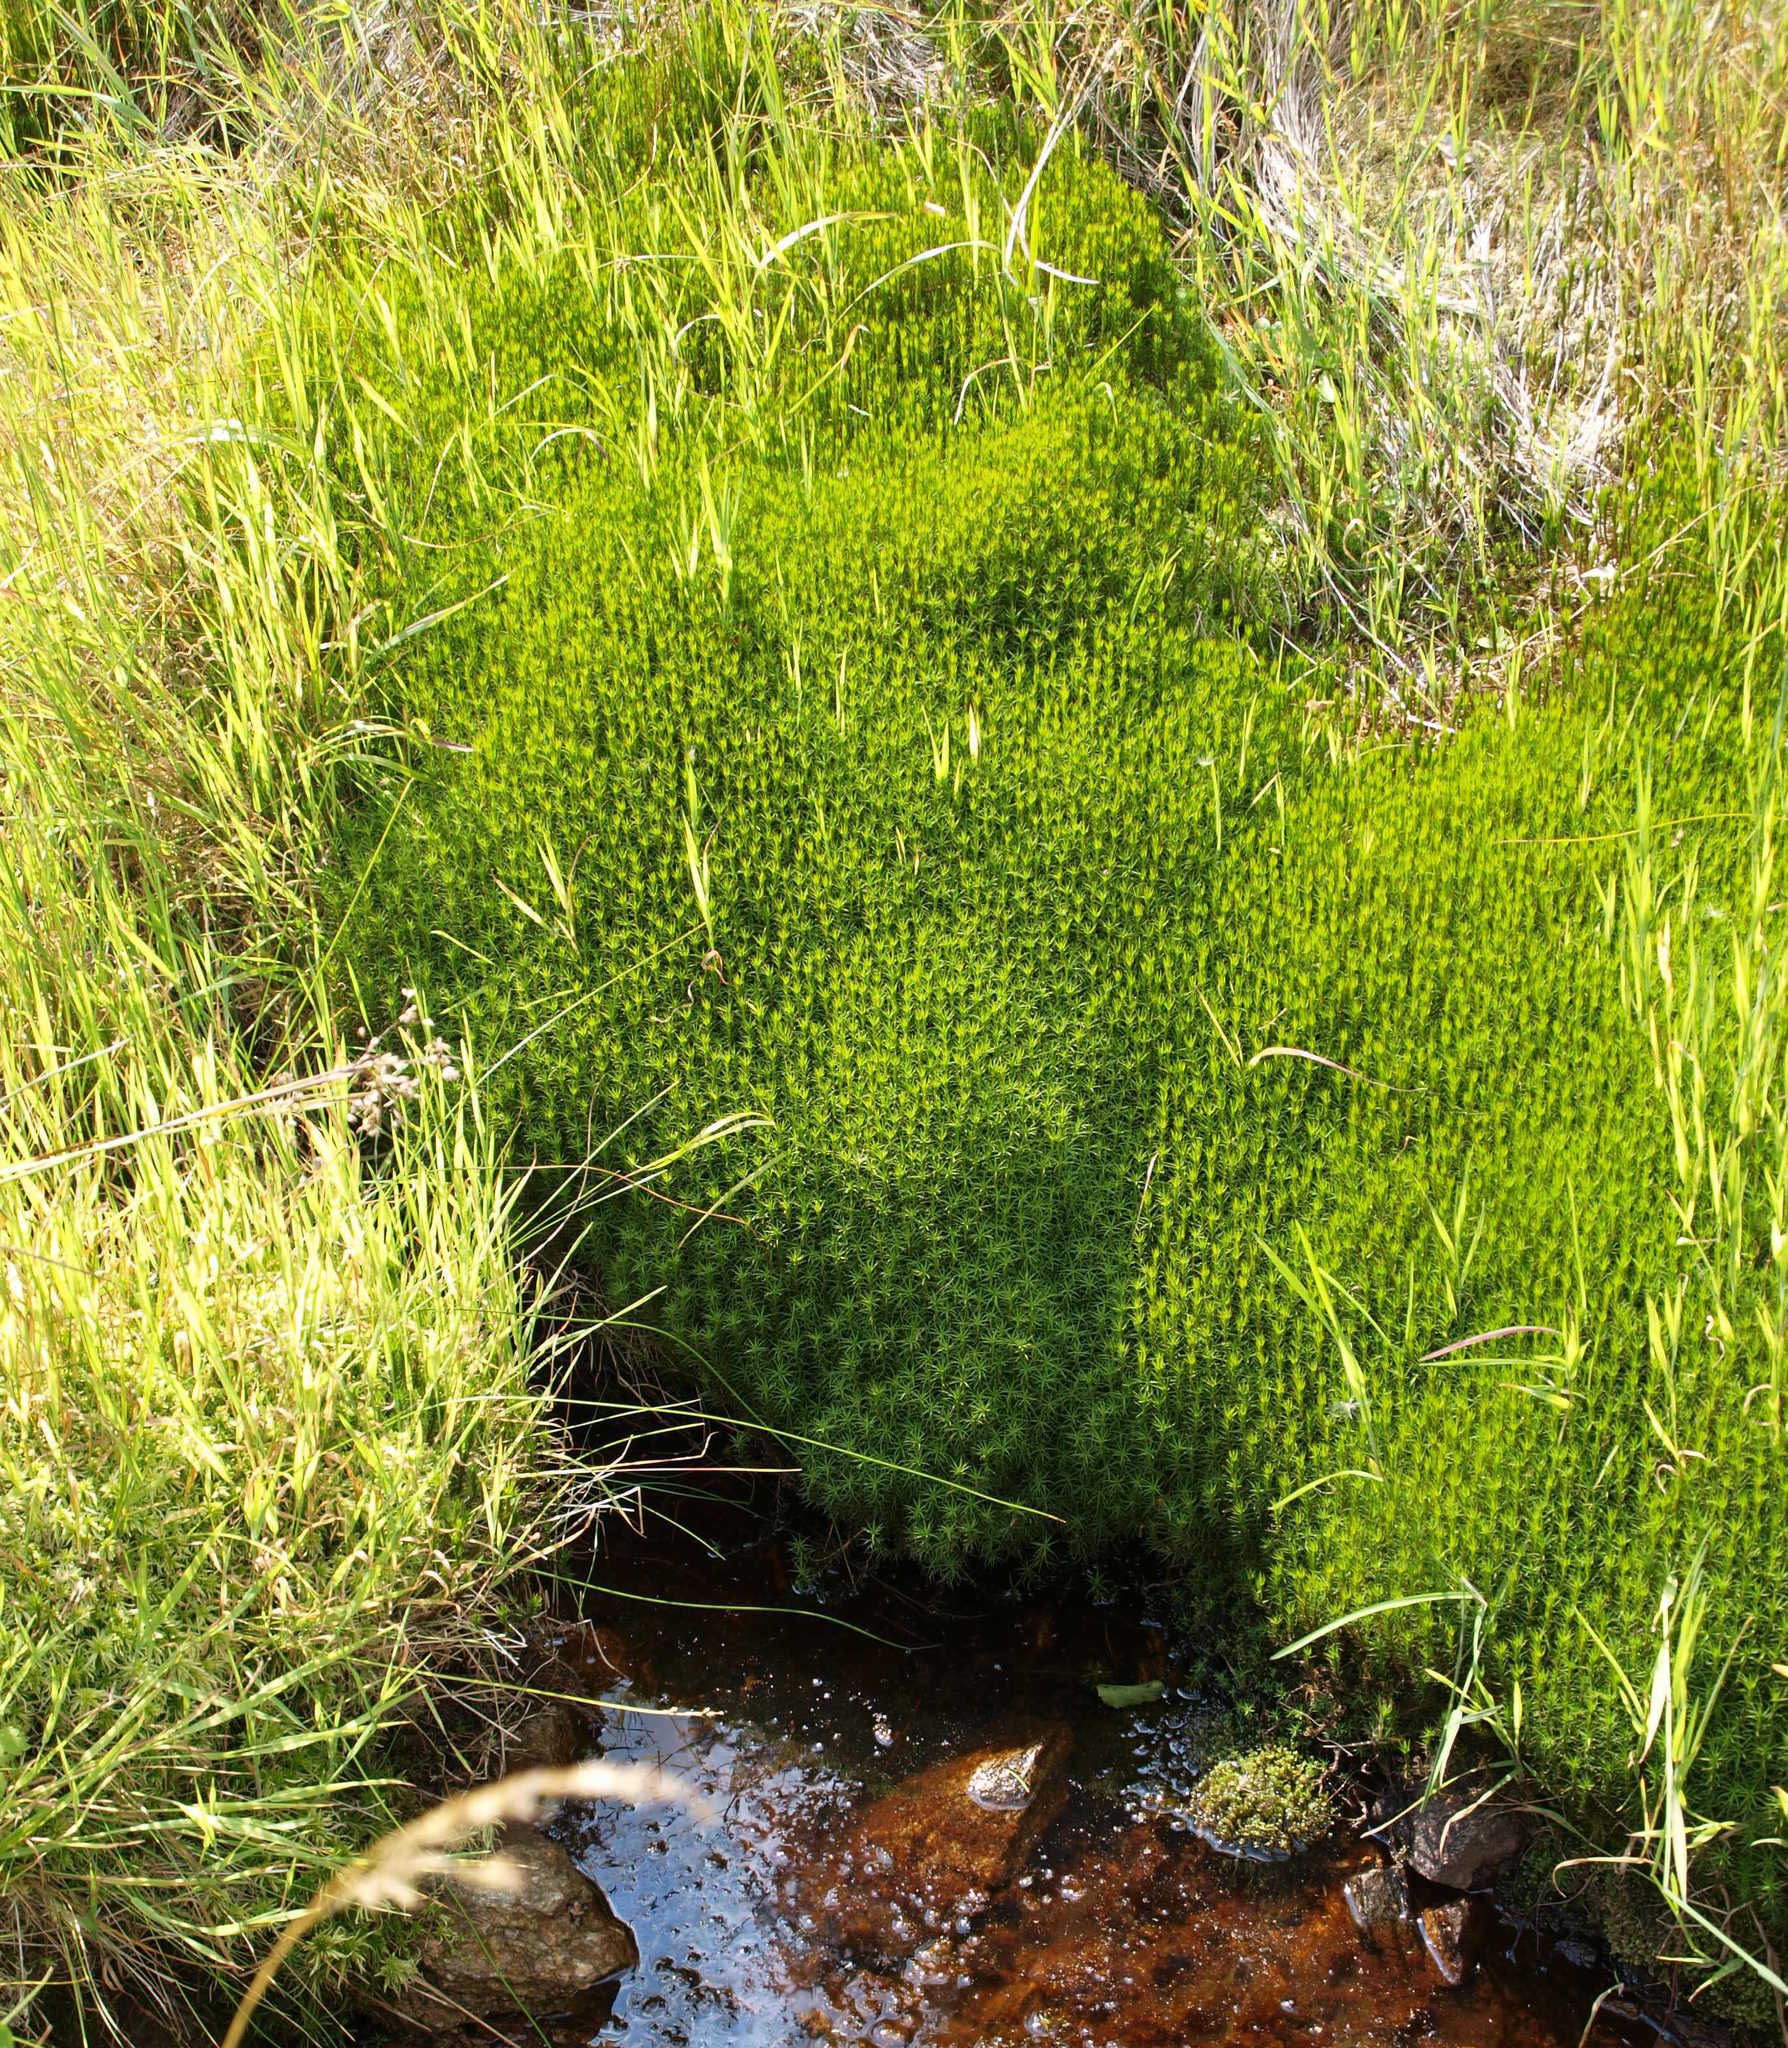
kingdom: Plantae
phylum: Bryophyta
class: Polytrichopsida
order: Polytrichales
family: Polytrichaceae
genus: Polytrichum
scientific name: Polytrichum commune
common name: Common haircap
